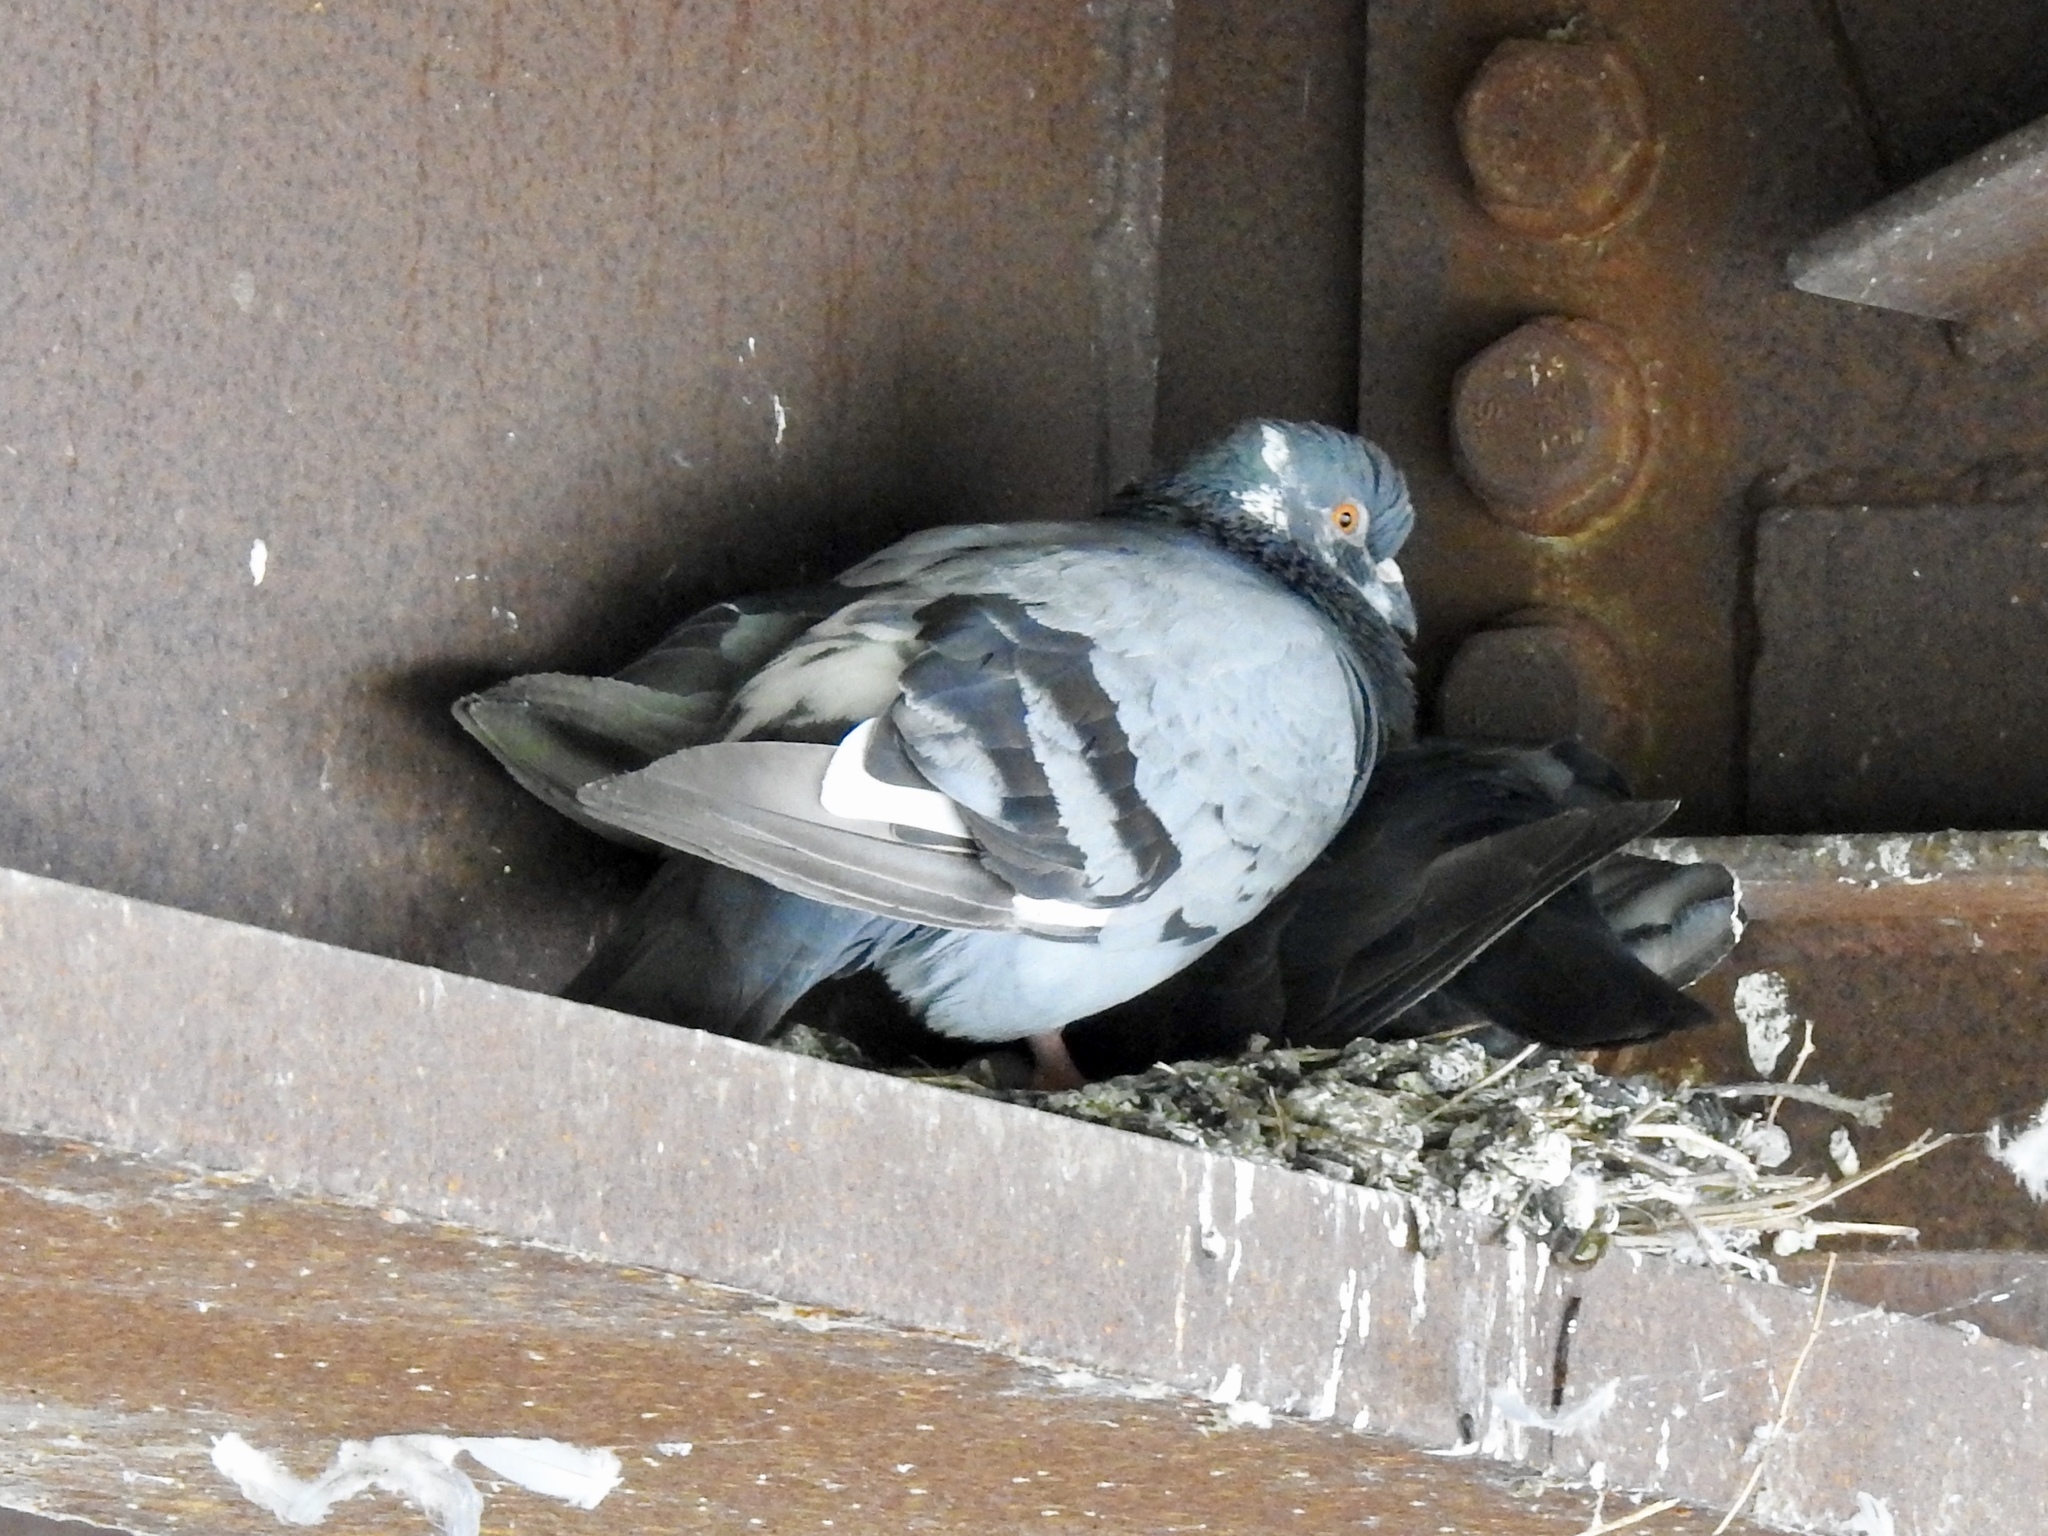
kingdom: Animalia
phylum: Chordata
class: Aves
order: Columbiformes
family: Columbidae
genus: Columba
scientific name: Columba livia
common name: Rock pigeon
